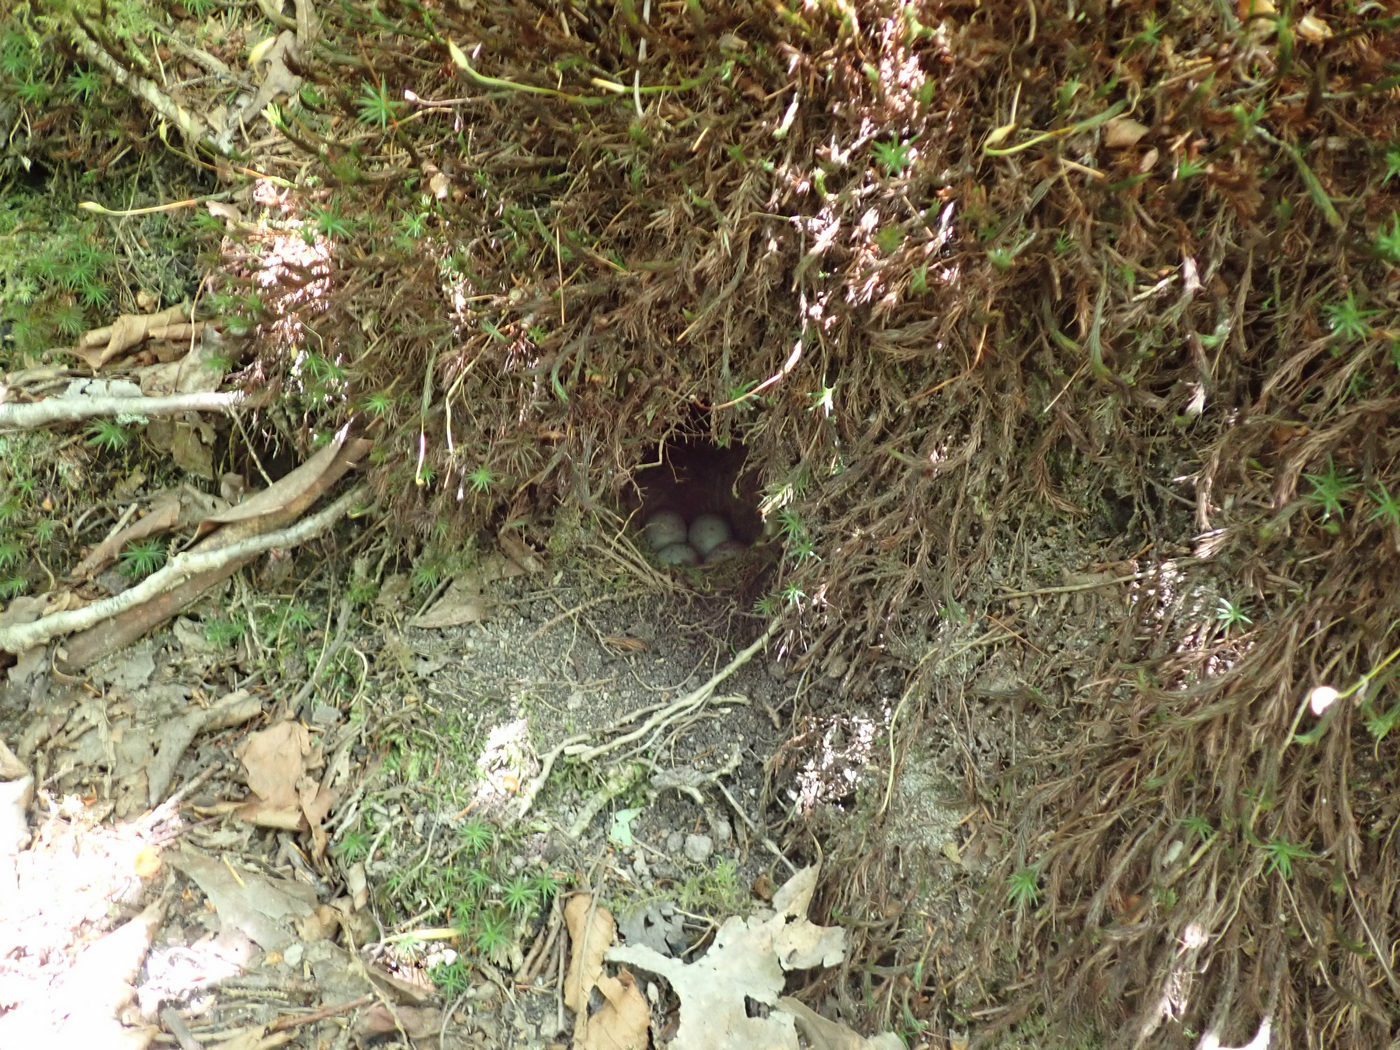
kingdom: Animalia
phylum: Chordata
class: Aves
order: Passeriformes
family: Passerellidae
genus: Junco
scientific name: Junco hyemalis
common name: Dark-eyed junco
